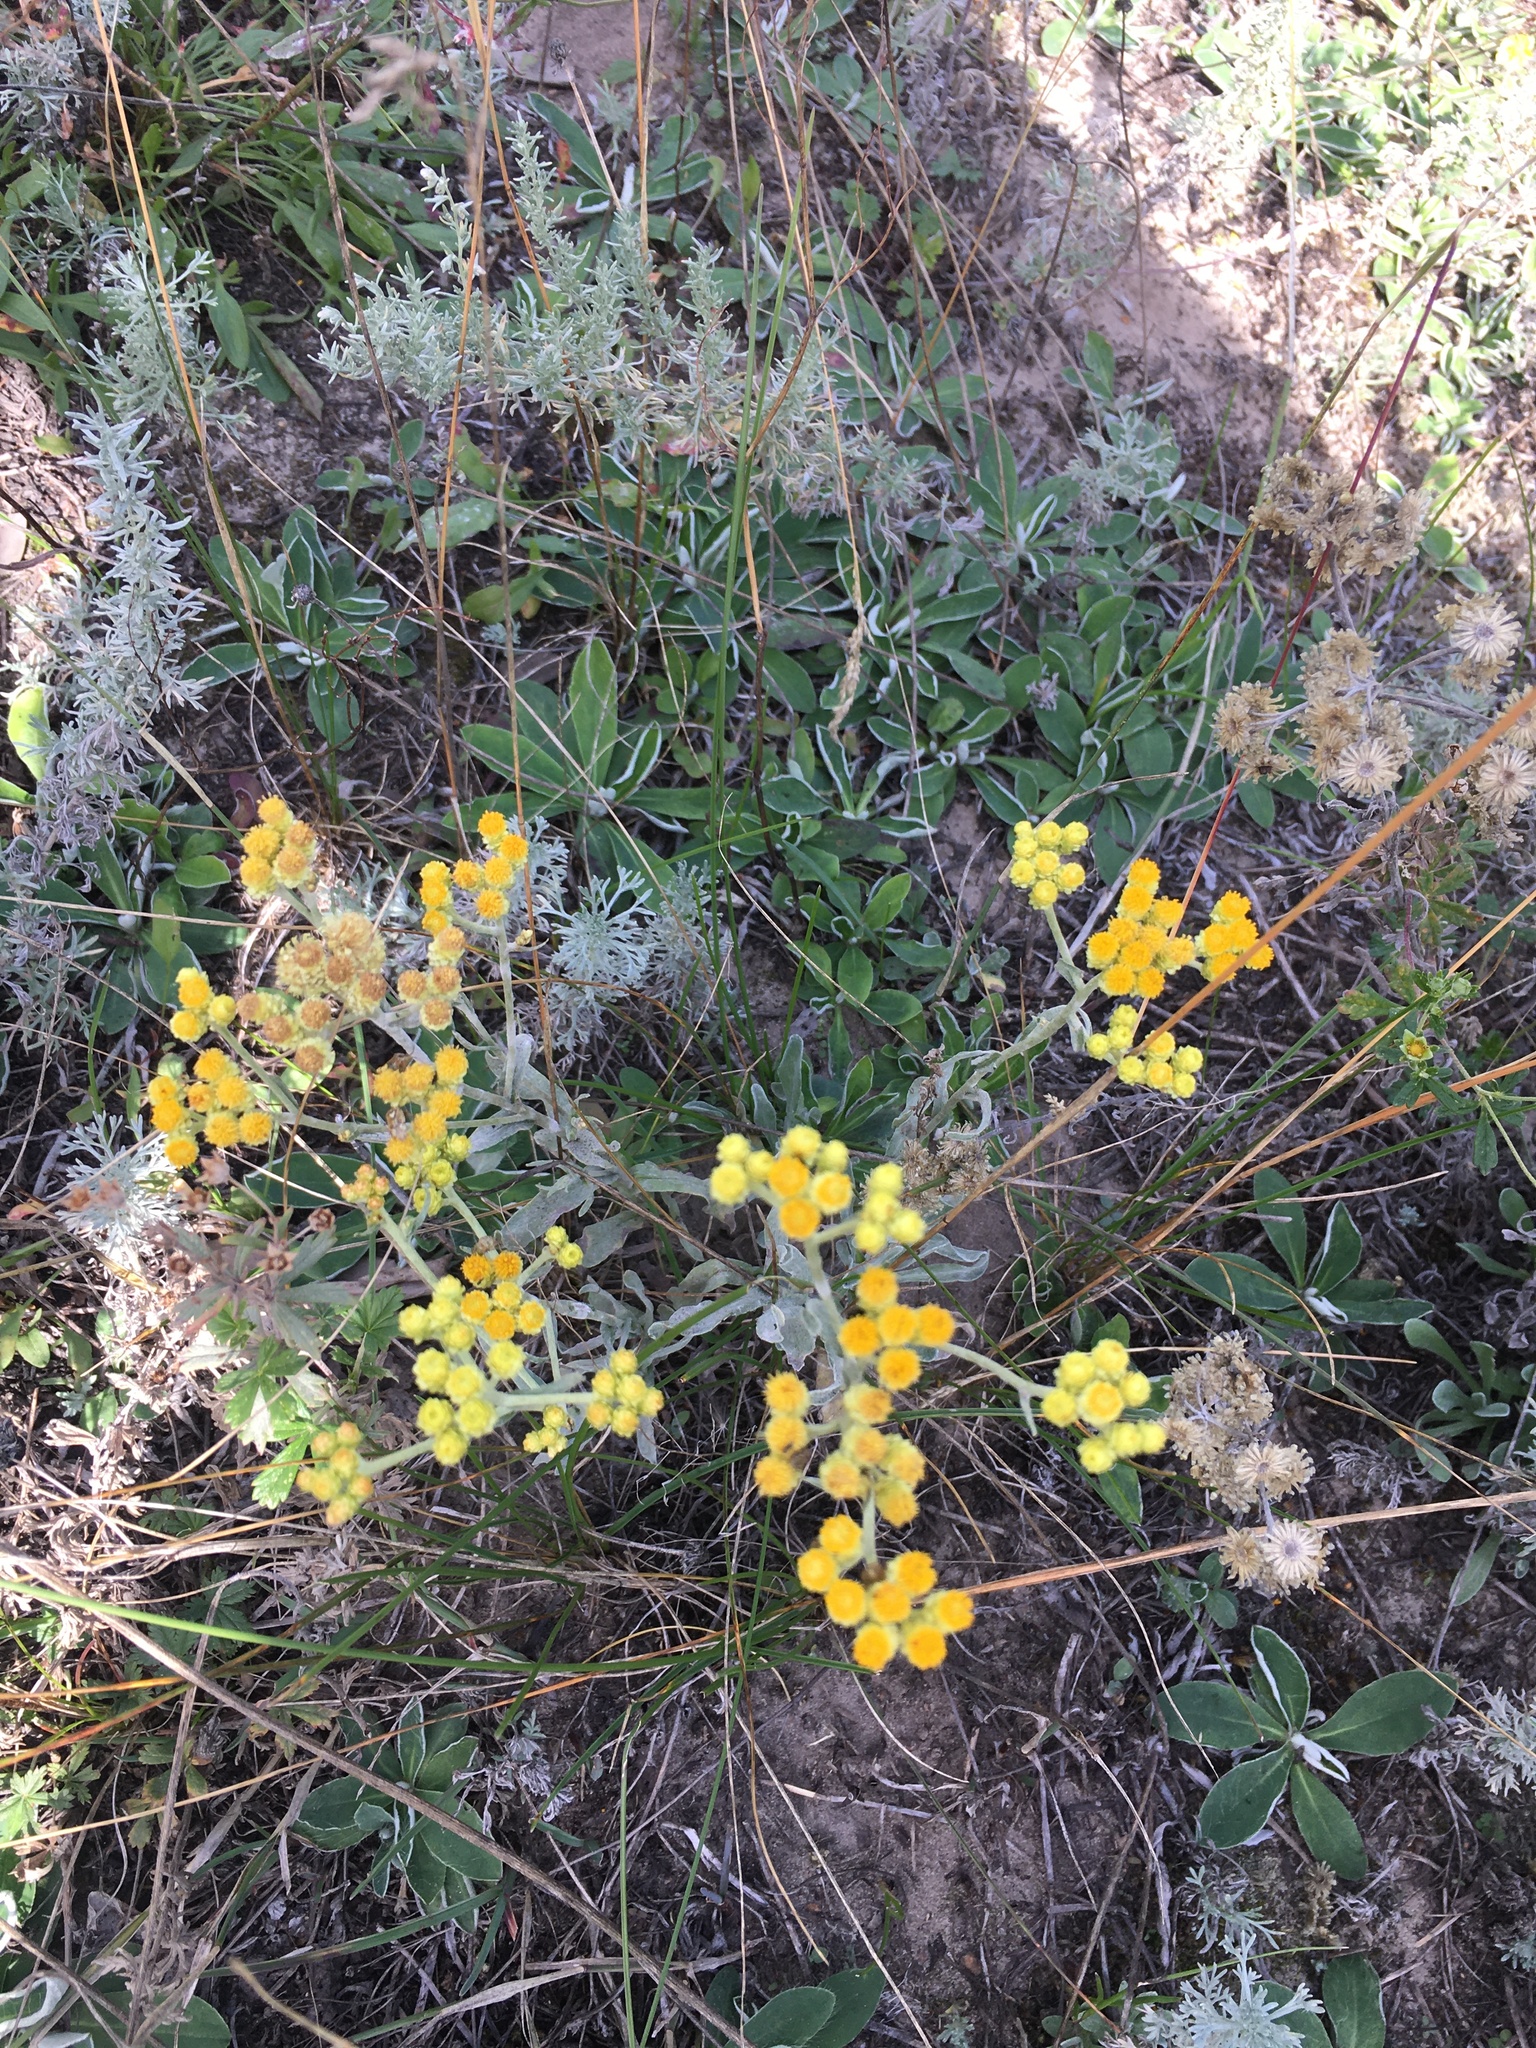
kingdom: Plantae
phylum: Tracheophyta
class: Magnoliopsida
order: Asterales
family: Asteraceae
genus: Helichrysum
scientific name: Helichrysum arenarium
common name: Strawflower
